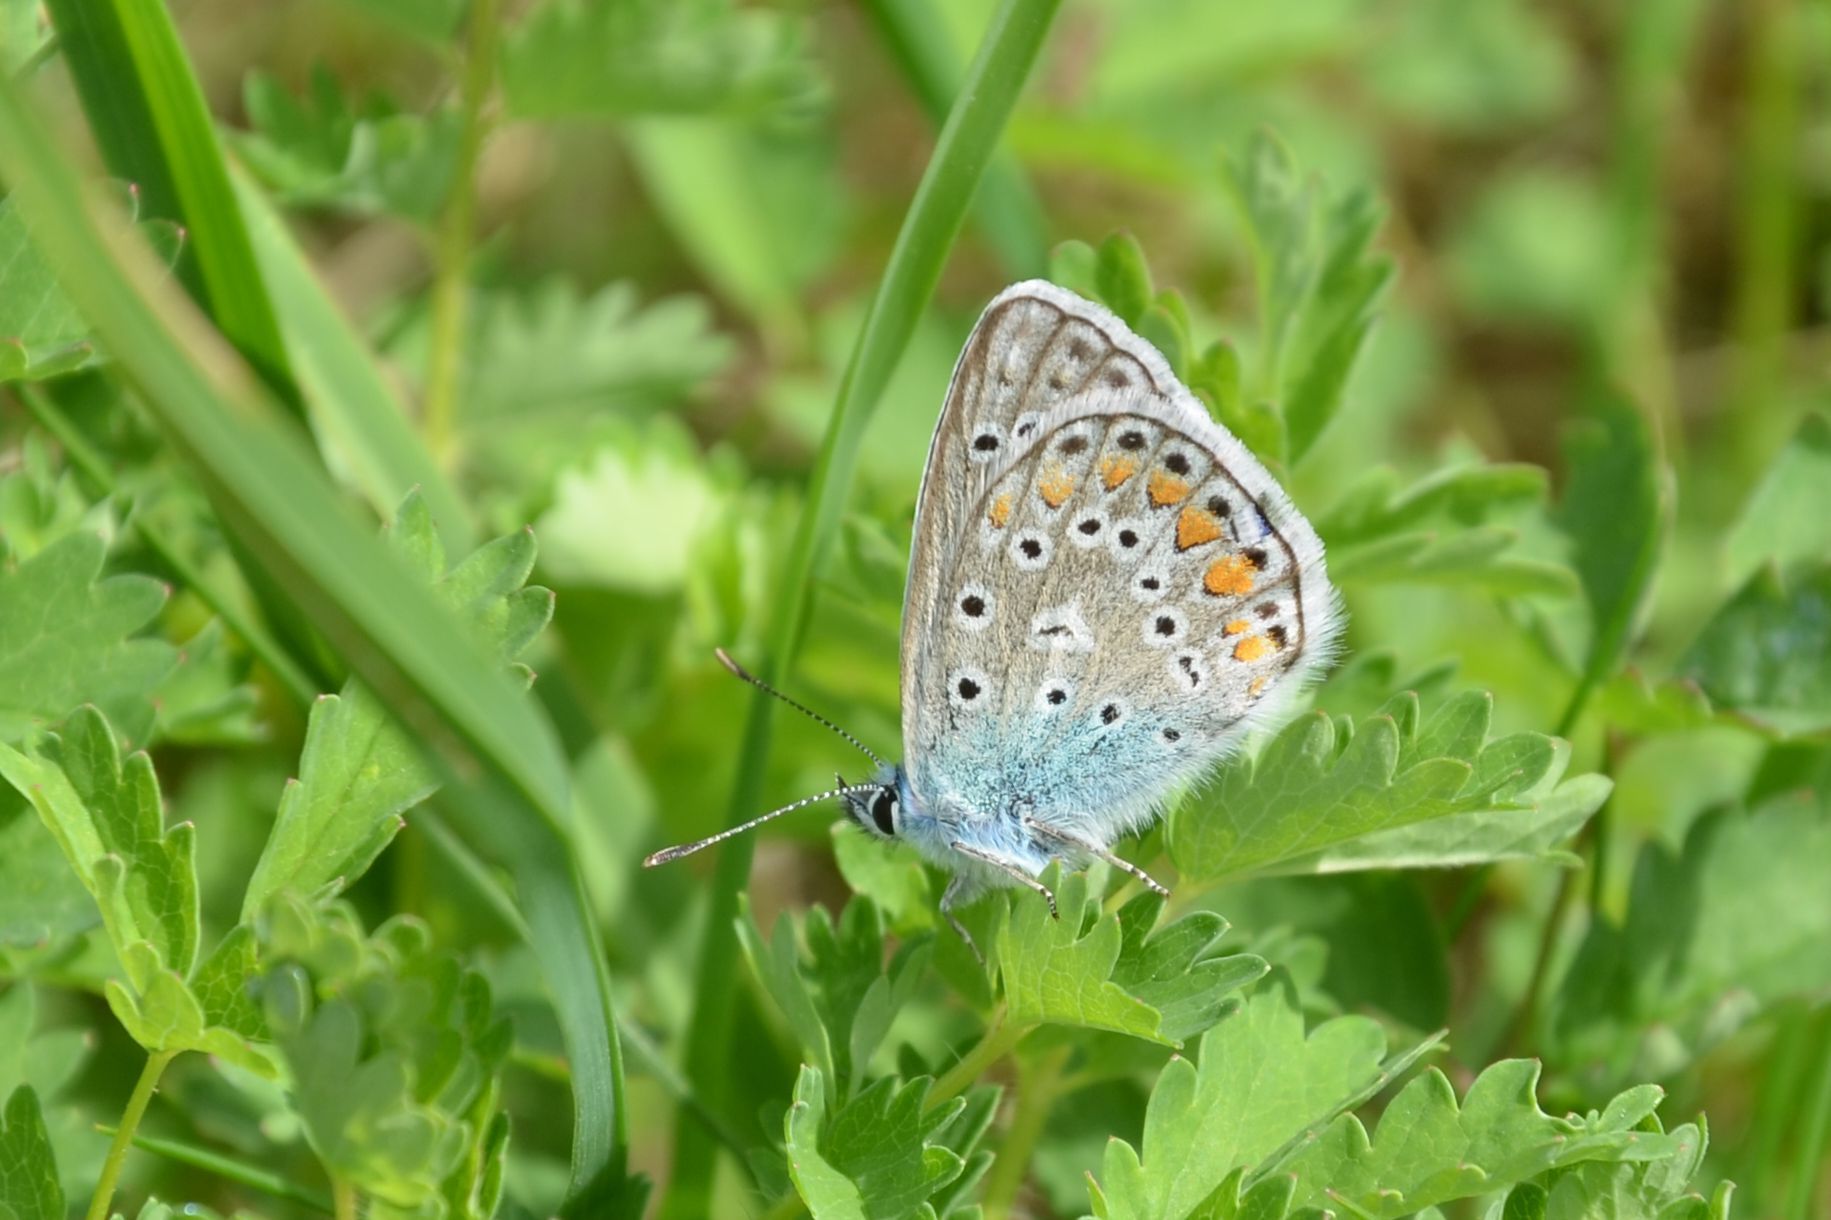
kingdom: Animalia
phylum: Arthropoda
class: Insecta
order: Lepidoptera
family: Lycaenidae
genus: Polyommatus
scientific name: Polyommatus icarus
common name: Common blue
